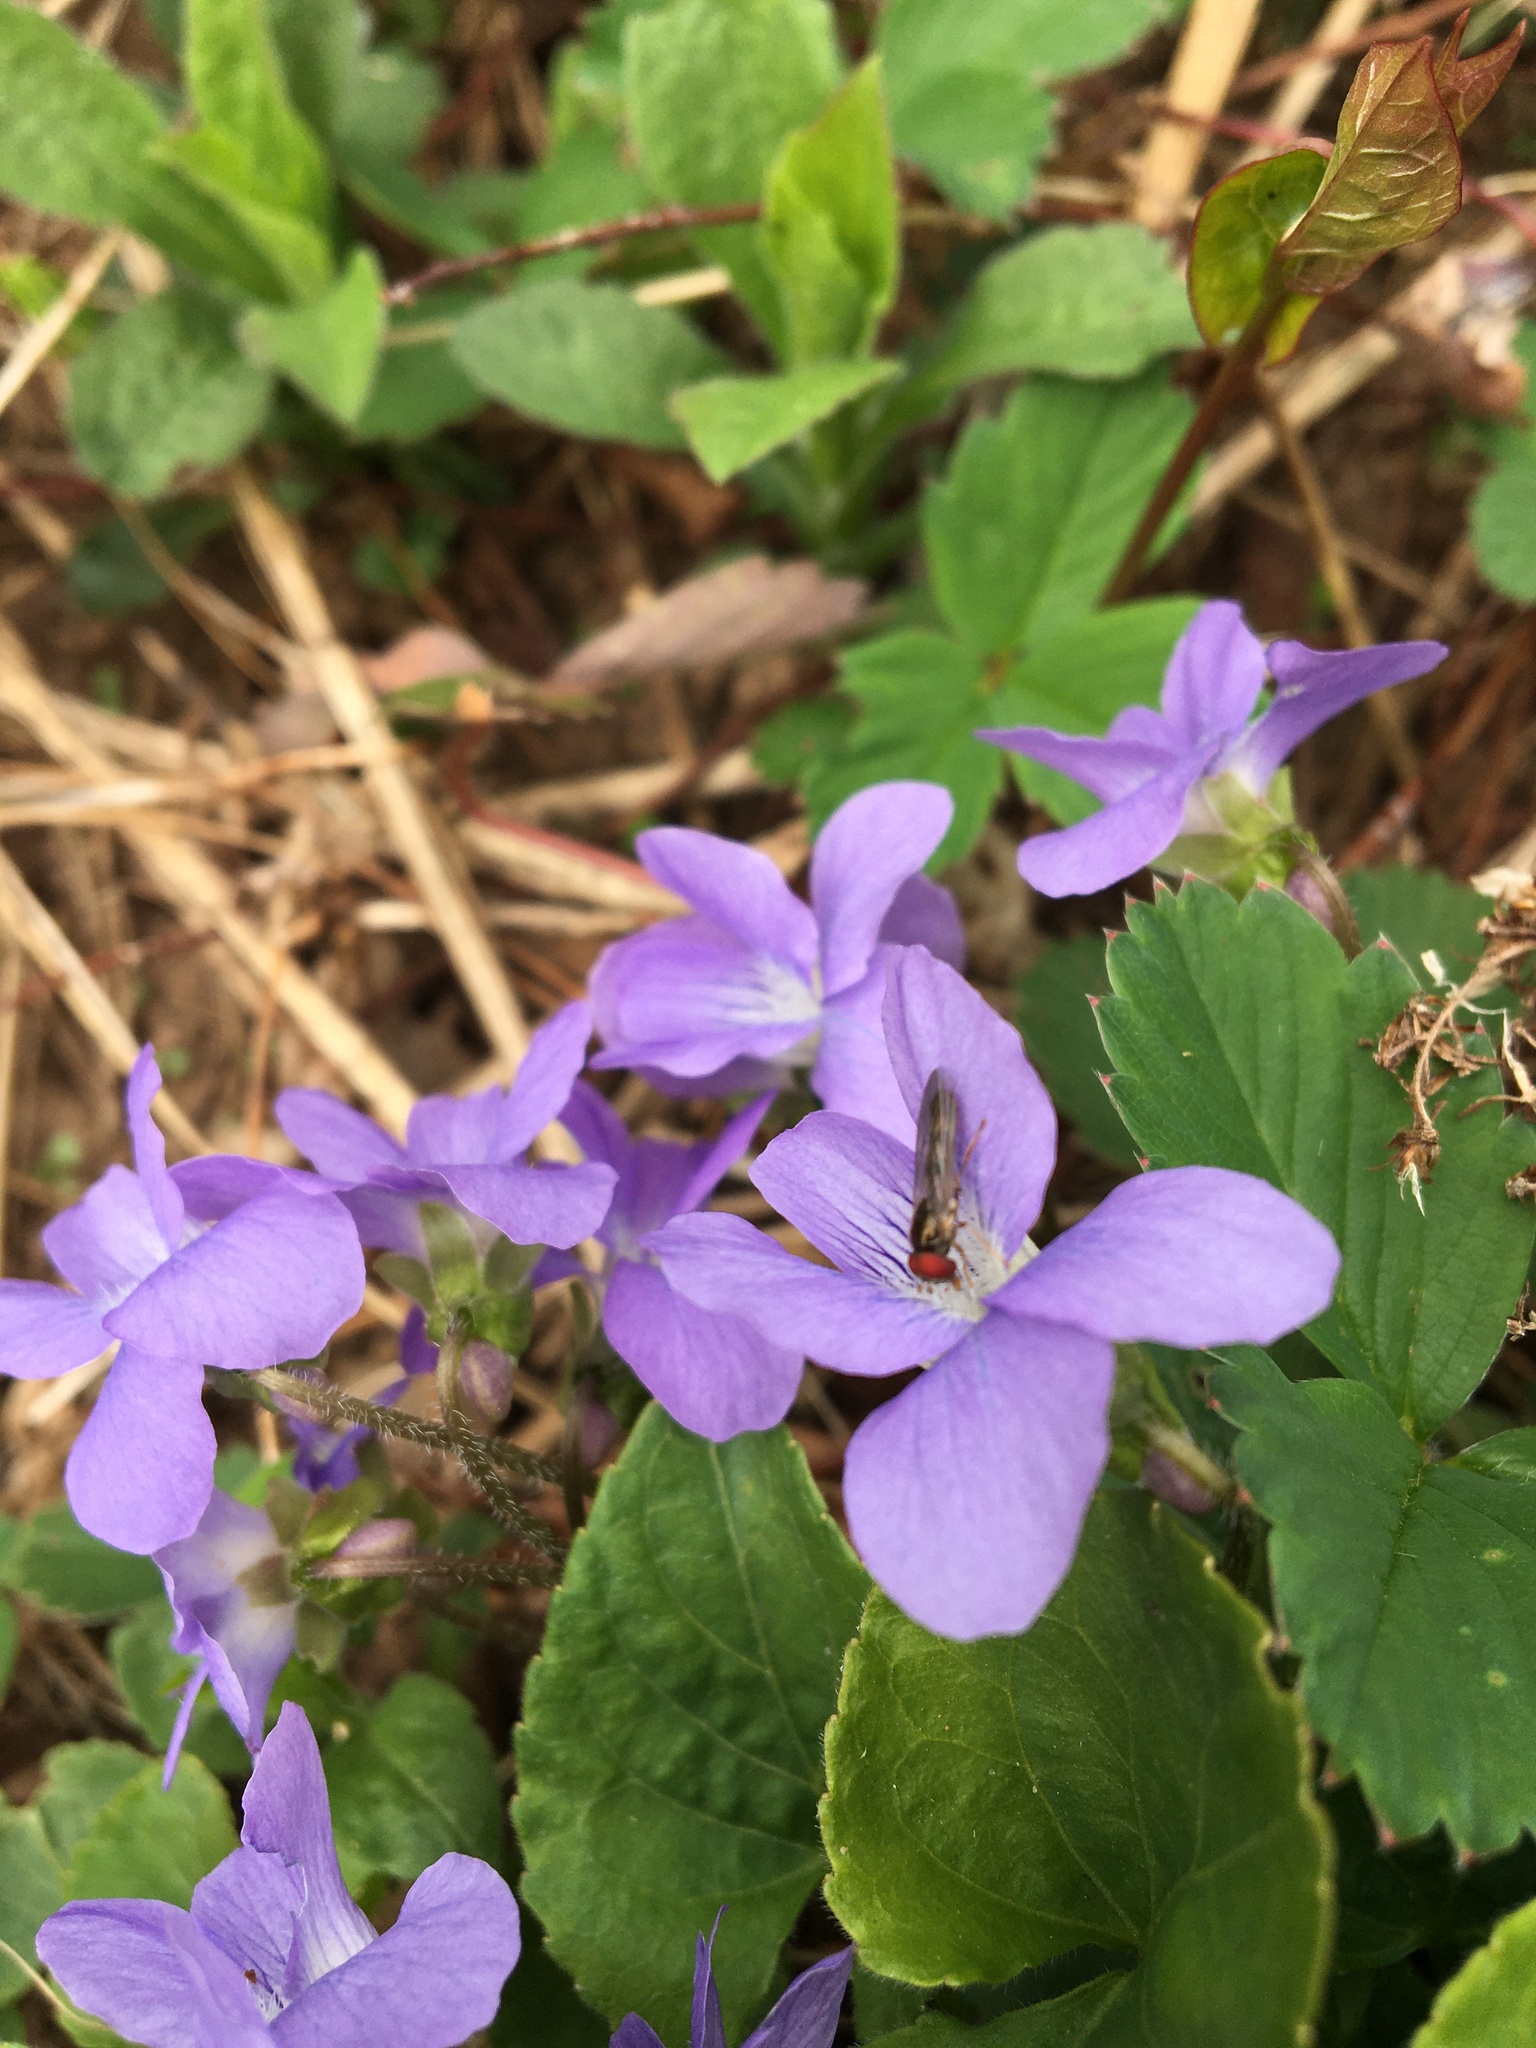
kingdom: Animalia
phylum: Arthropoda
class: Insecta
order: Diptera
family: Syrphidae
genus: Melanostoma
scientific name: Melanostoma mellina
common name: Hover fly
